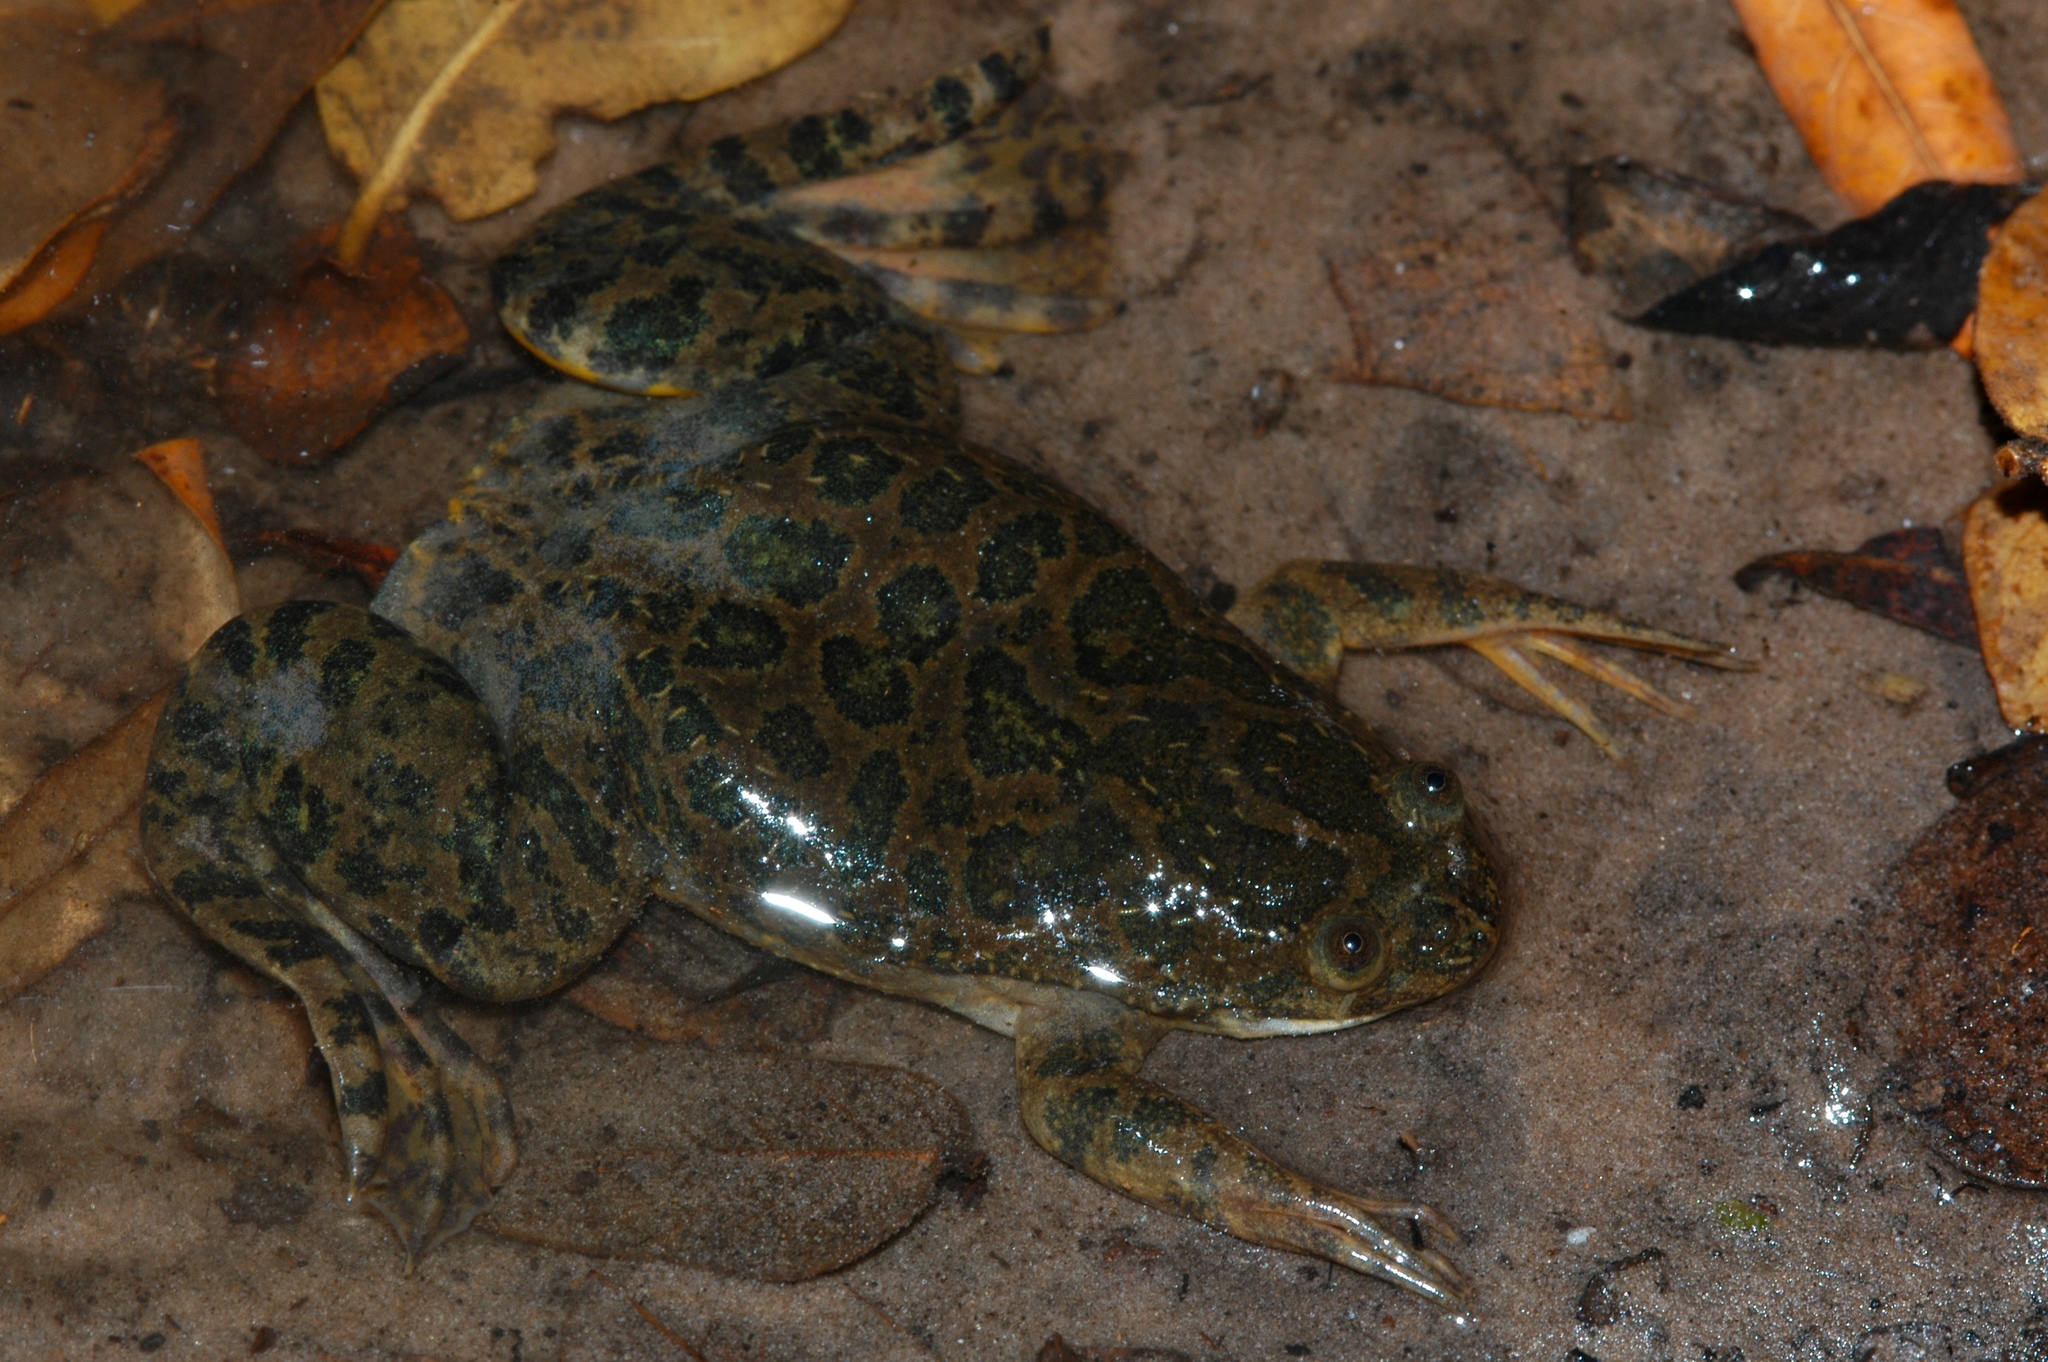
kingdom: Animalia
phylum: Chordata
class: Amphibia
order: Anura
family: Pipidae
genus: Xenopus
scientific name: Xenopus petersii
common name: Peters' clawed frog
